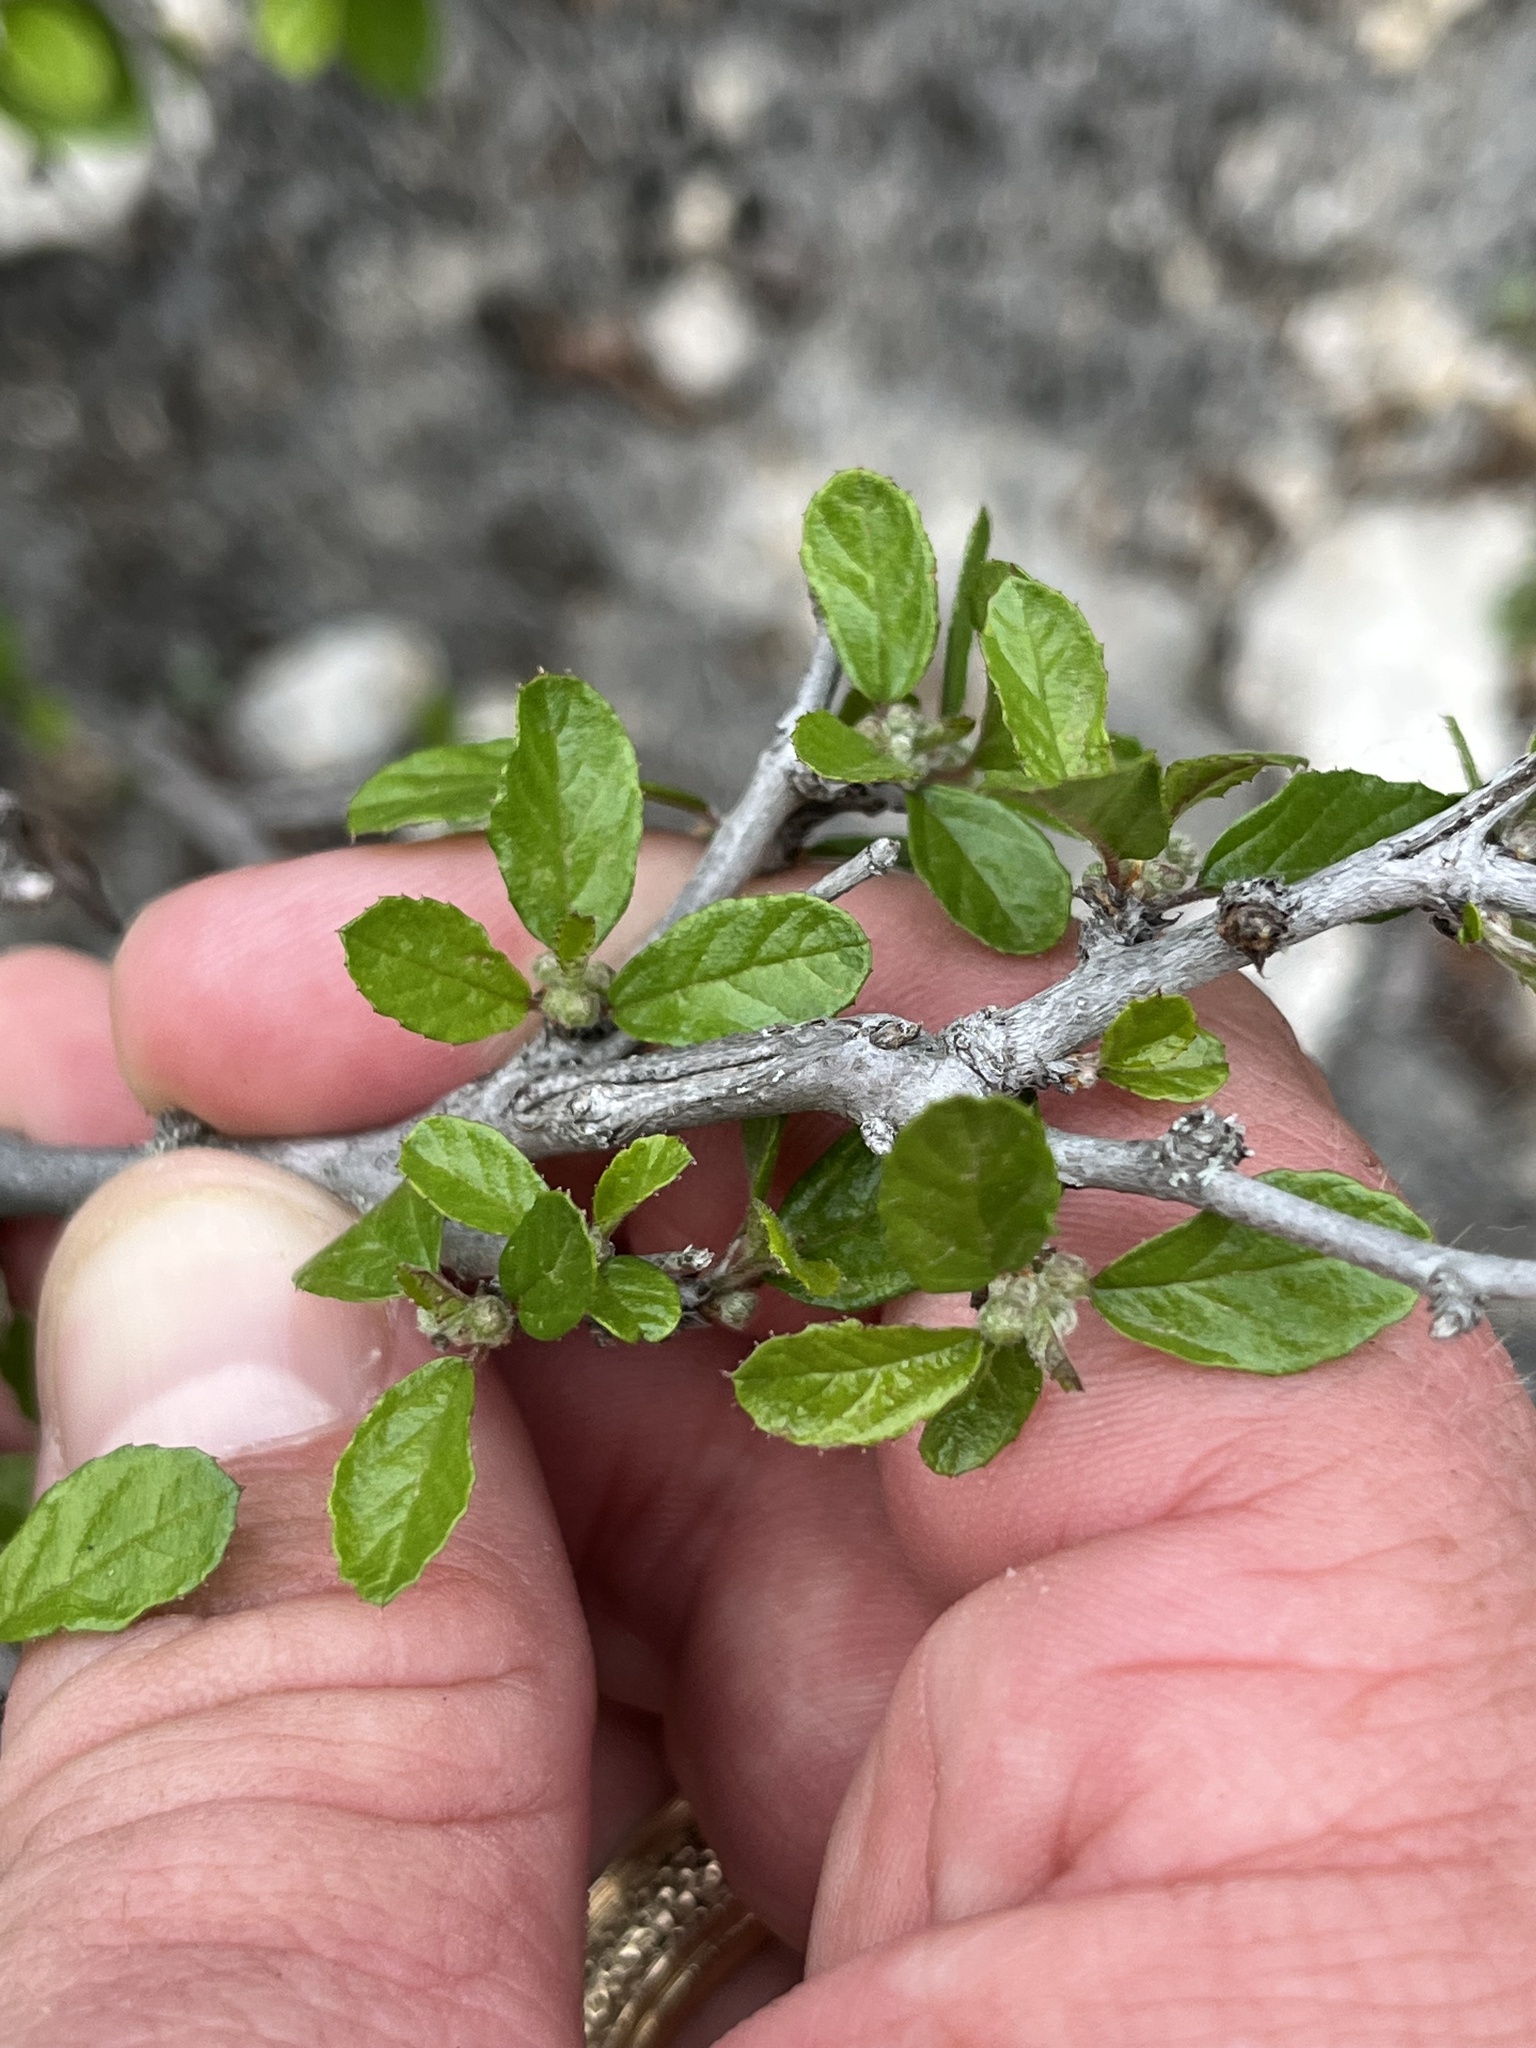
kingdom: Plantae
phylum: Tracheophyta
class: Magnoliopsida
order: Rosales
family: Rhamnaceae
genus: Colubrina
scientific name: Colubrina texensis
